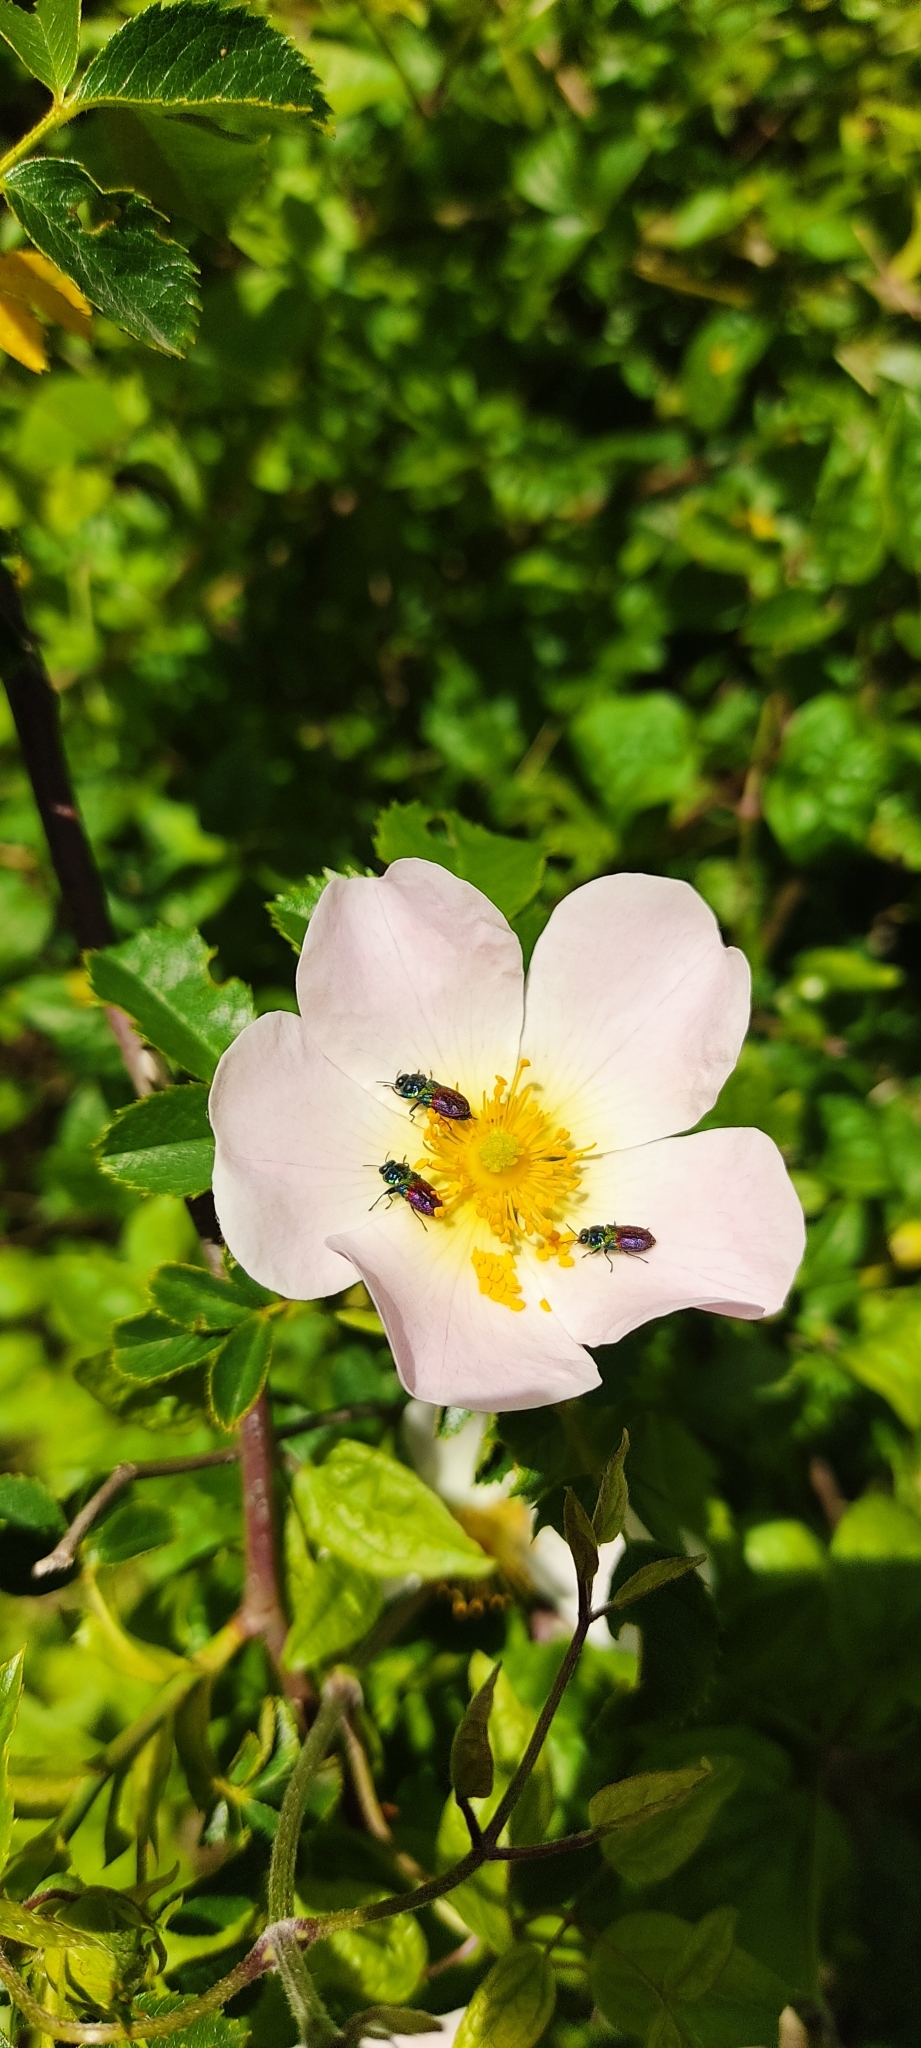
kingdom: Animalia
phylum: Arthropoda
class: Insecta
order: Coleoptera
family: Buprestidae
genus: Anthaxia
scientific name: Anthaxia dimidiata
